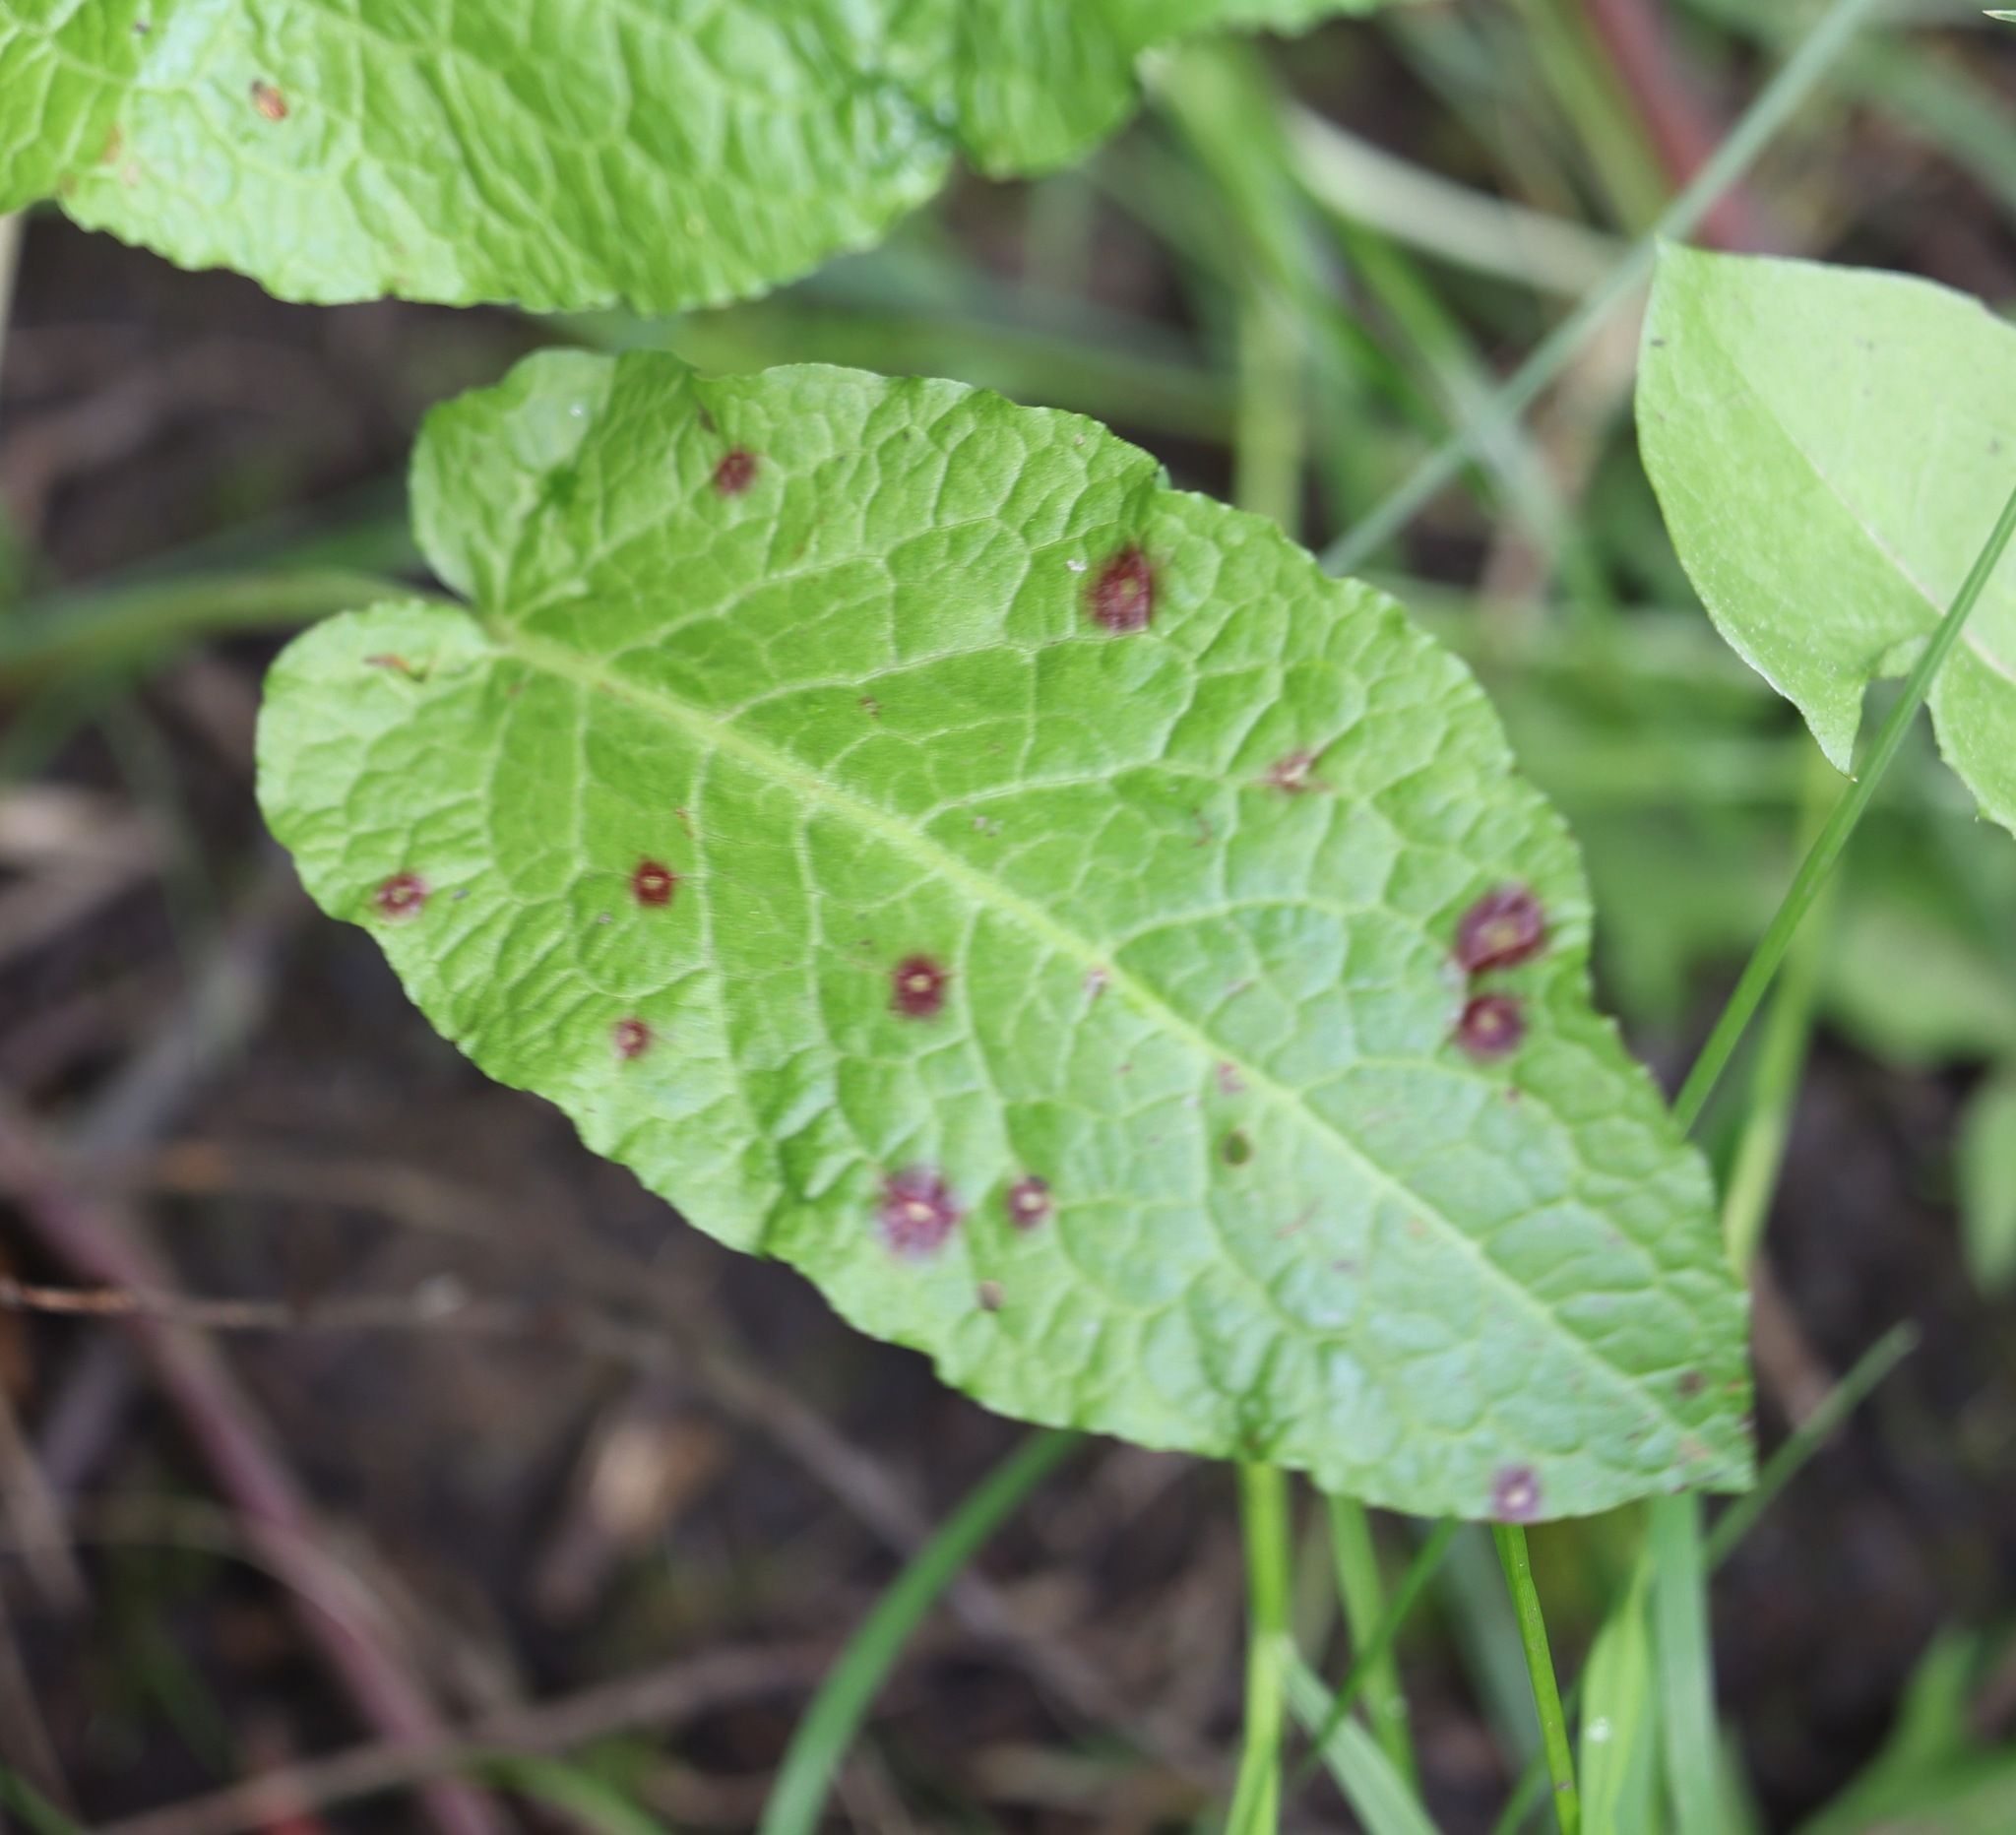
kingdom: Fungi
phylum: Ascomycota
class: Dothideomycetes
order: Mycosphaerellales
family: Mycosphaerellaceae
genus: Ramularia
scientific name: Ramularia rubella
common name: Red dock spot
